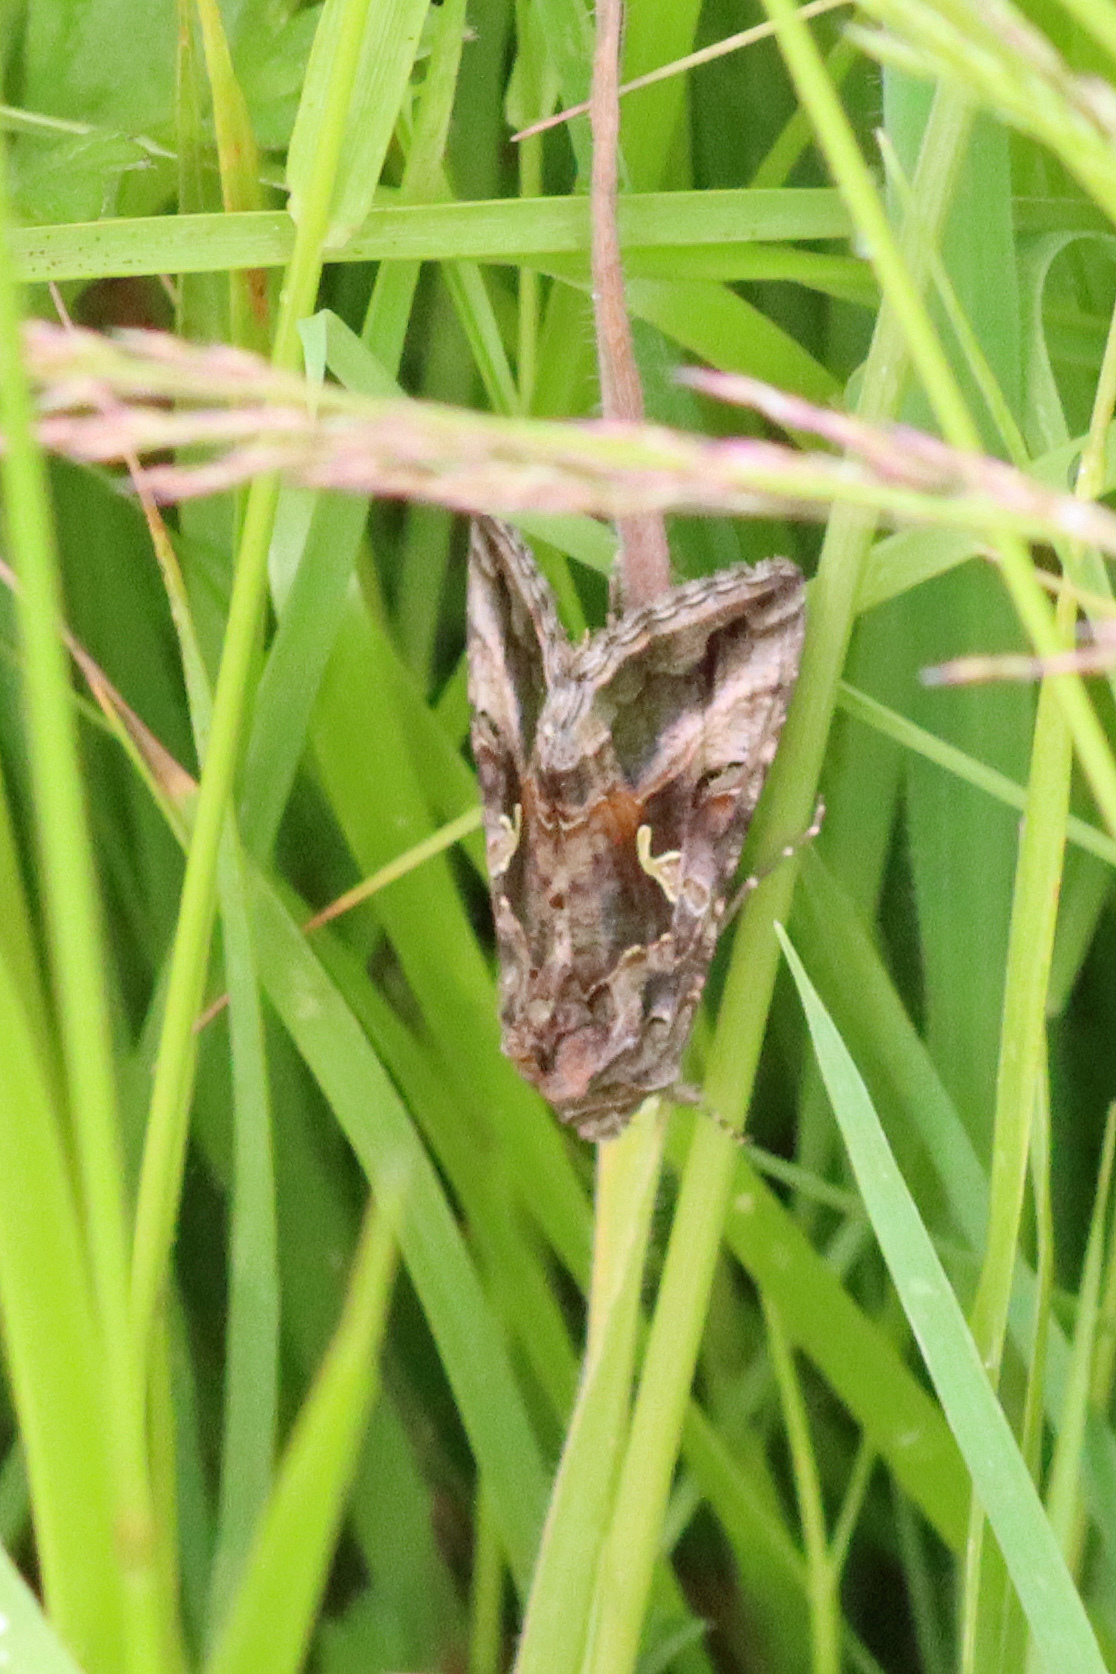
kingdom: Animalia
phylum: Arthropoda
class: Insecta
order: Lepidoptera
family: Noctuidae
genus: Autographa
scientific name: Autographa gamma
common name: Silver y
